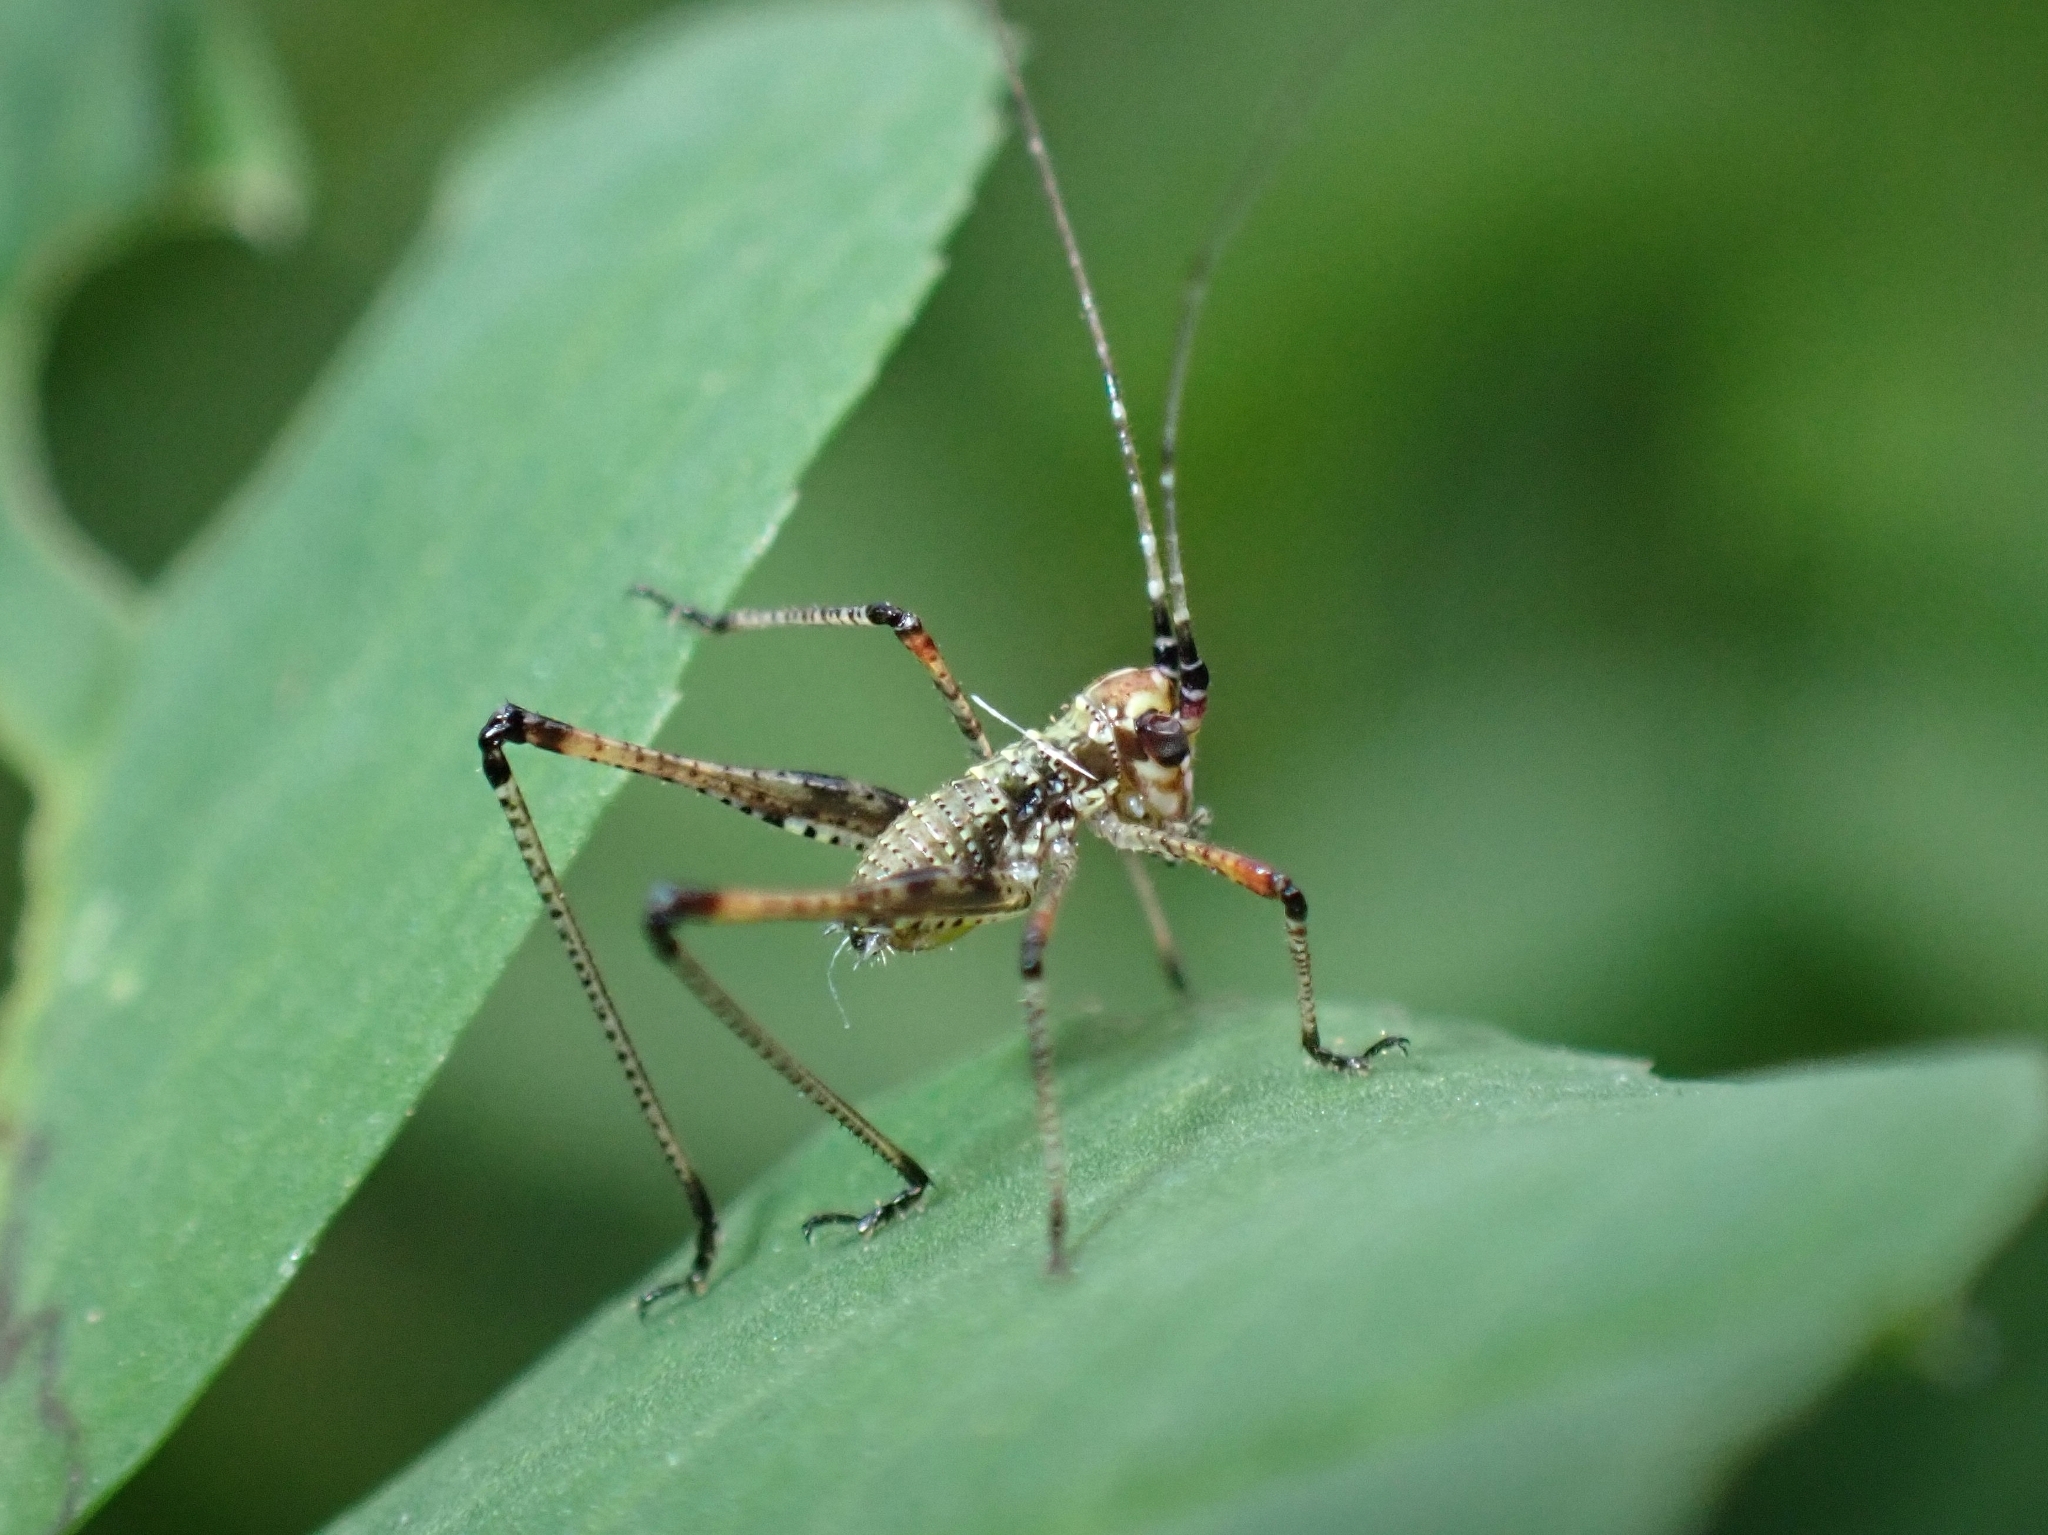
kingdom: Animalia
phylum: Arthropoda
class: Insecta
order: Orthoptera
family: Tettigoniidae
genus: Phaneroptera
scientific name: Phaneroptera sparsa
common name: Sickle-bearing leaf katydid
